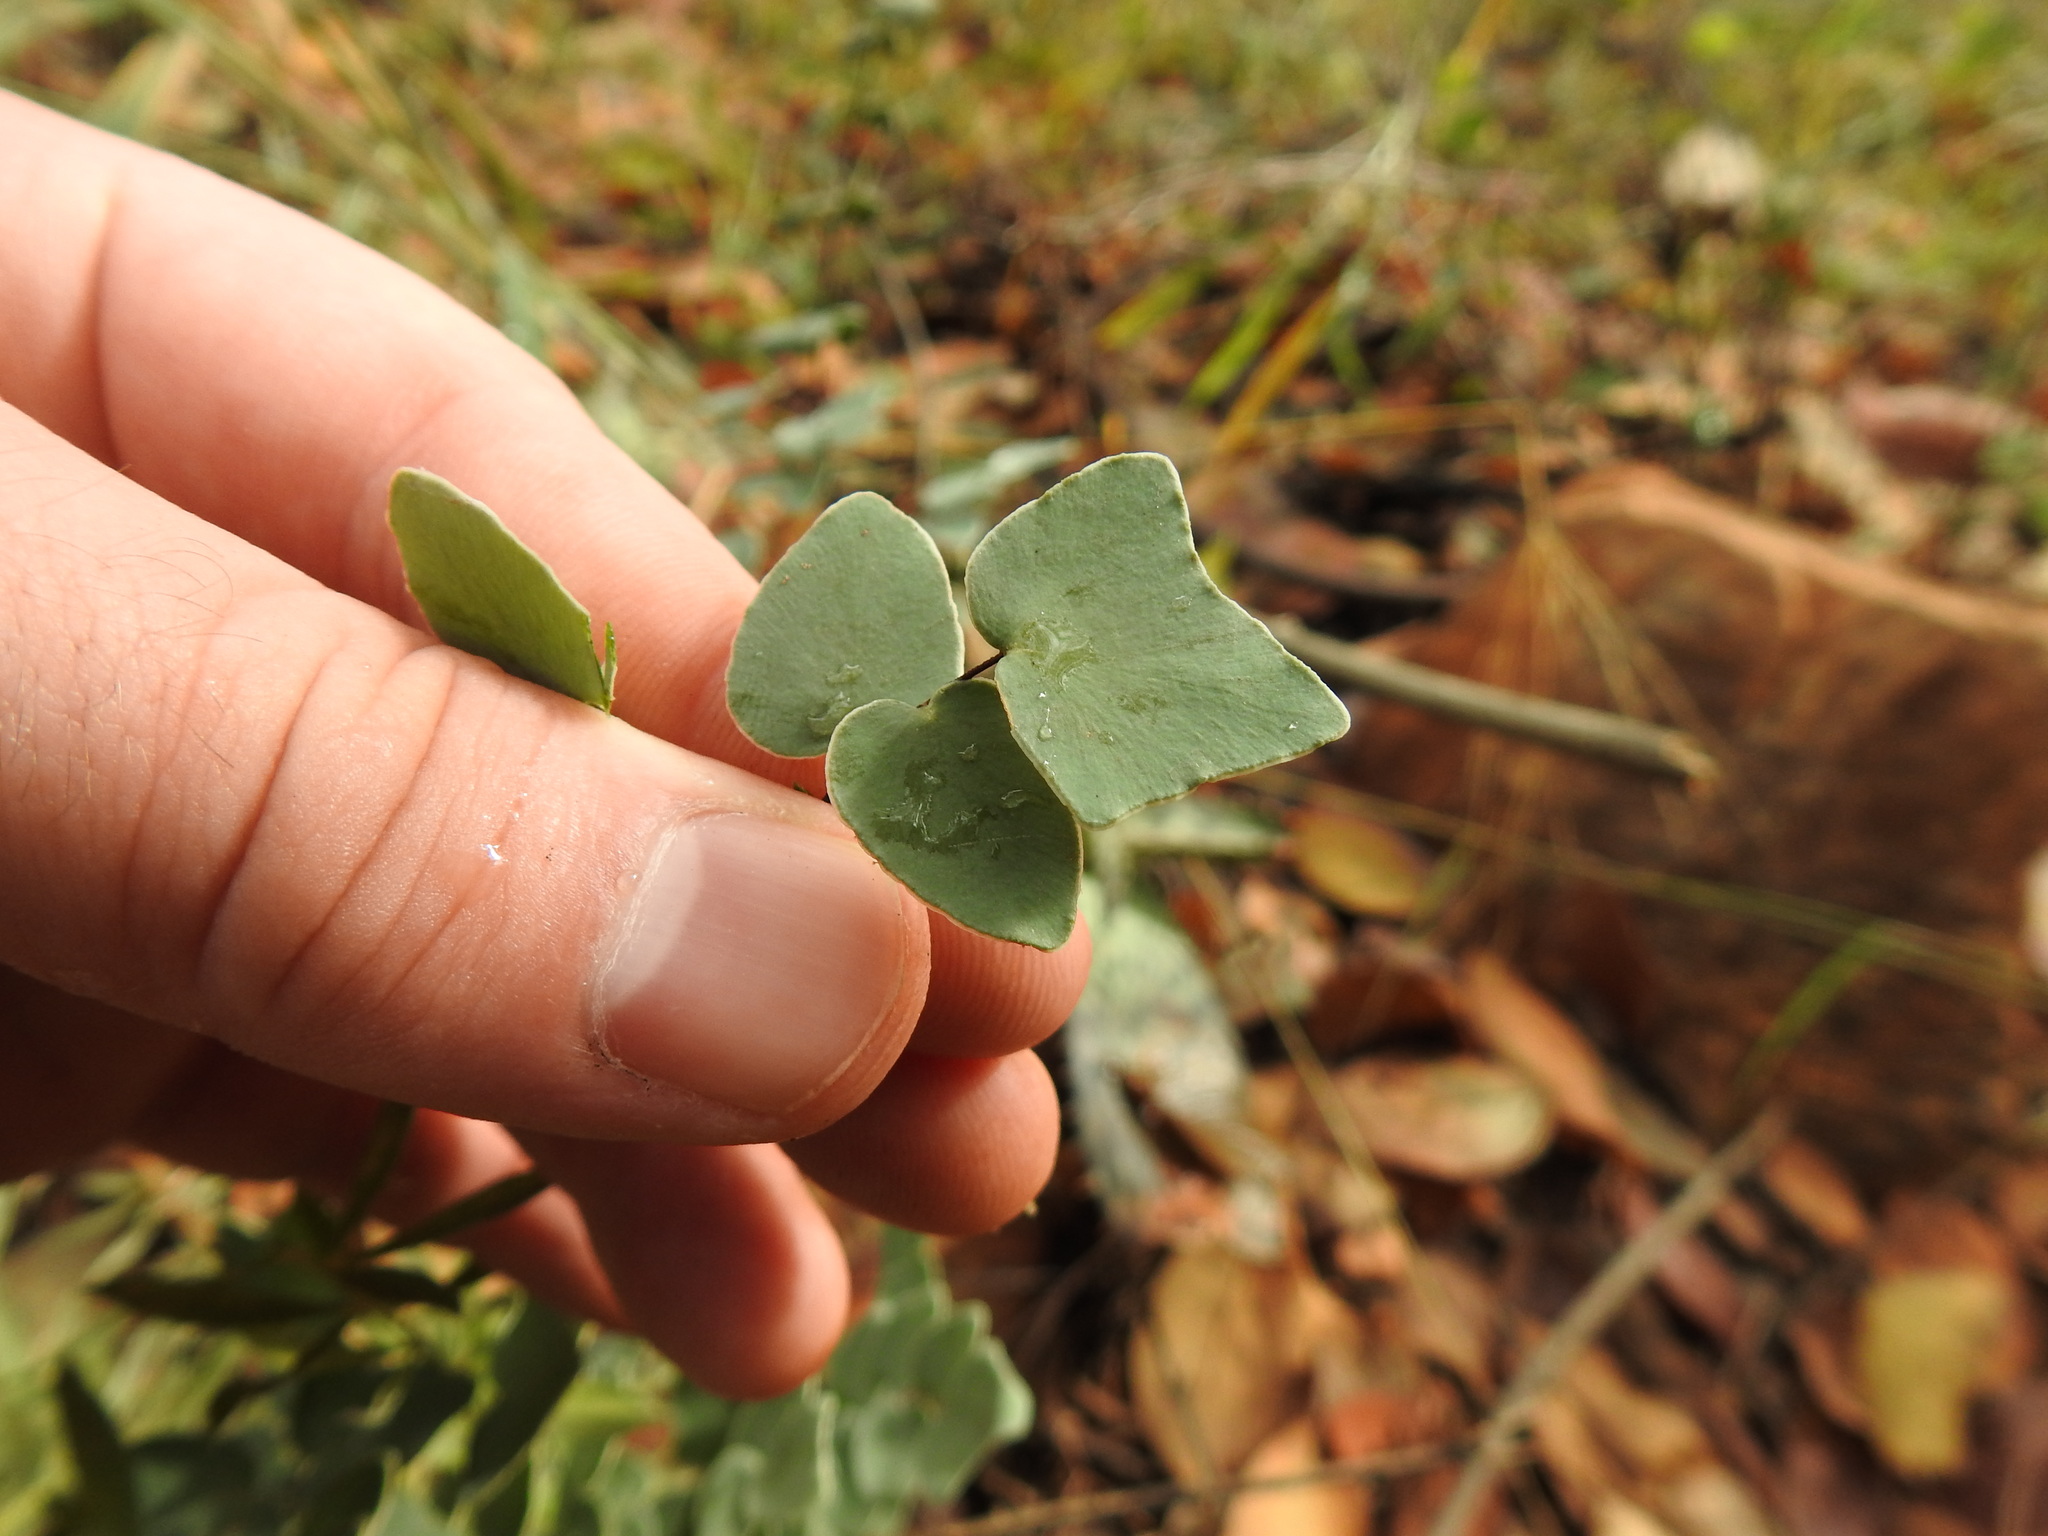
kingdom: Plantae
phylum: Tracheophyta
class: Polypodiopsida
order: Polypodiales
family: Pteridaceae
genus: Pellaea
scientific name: Pellaea calomelanos
